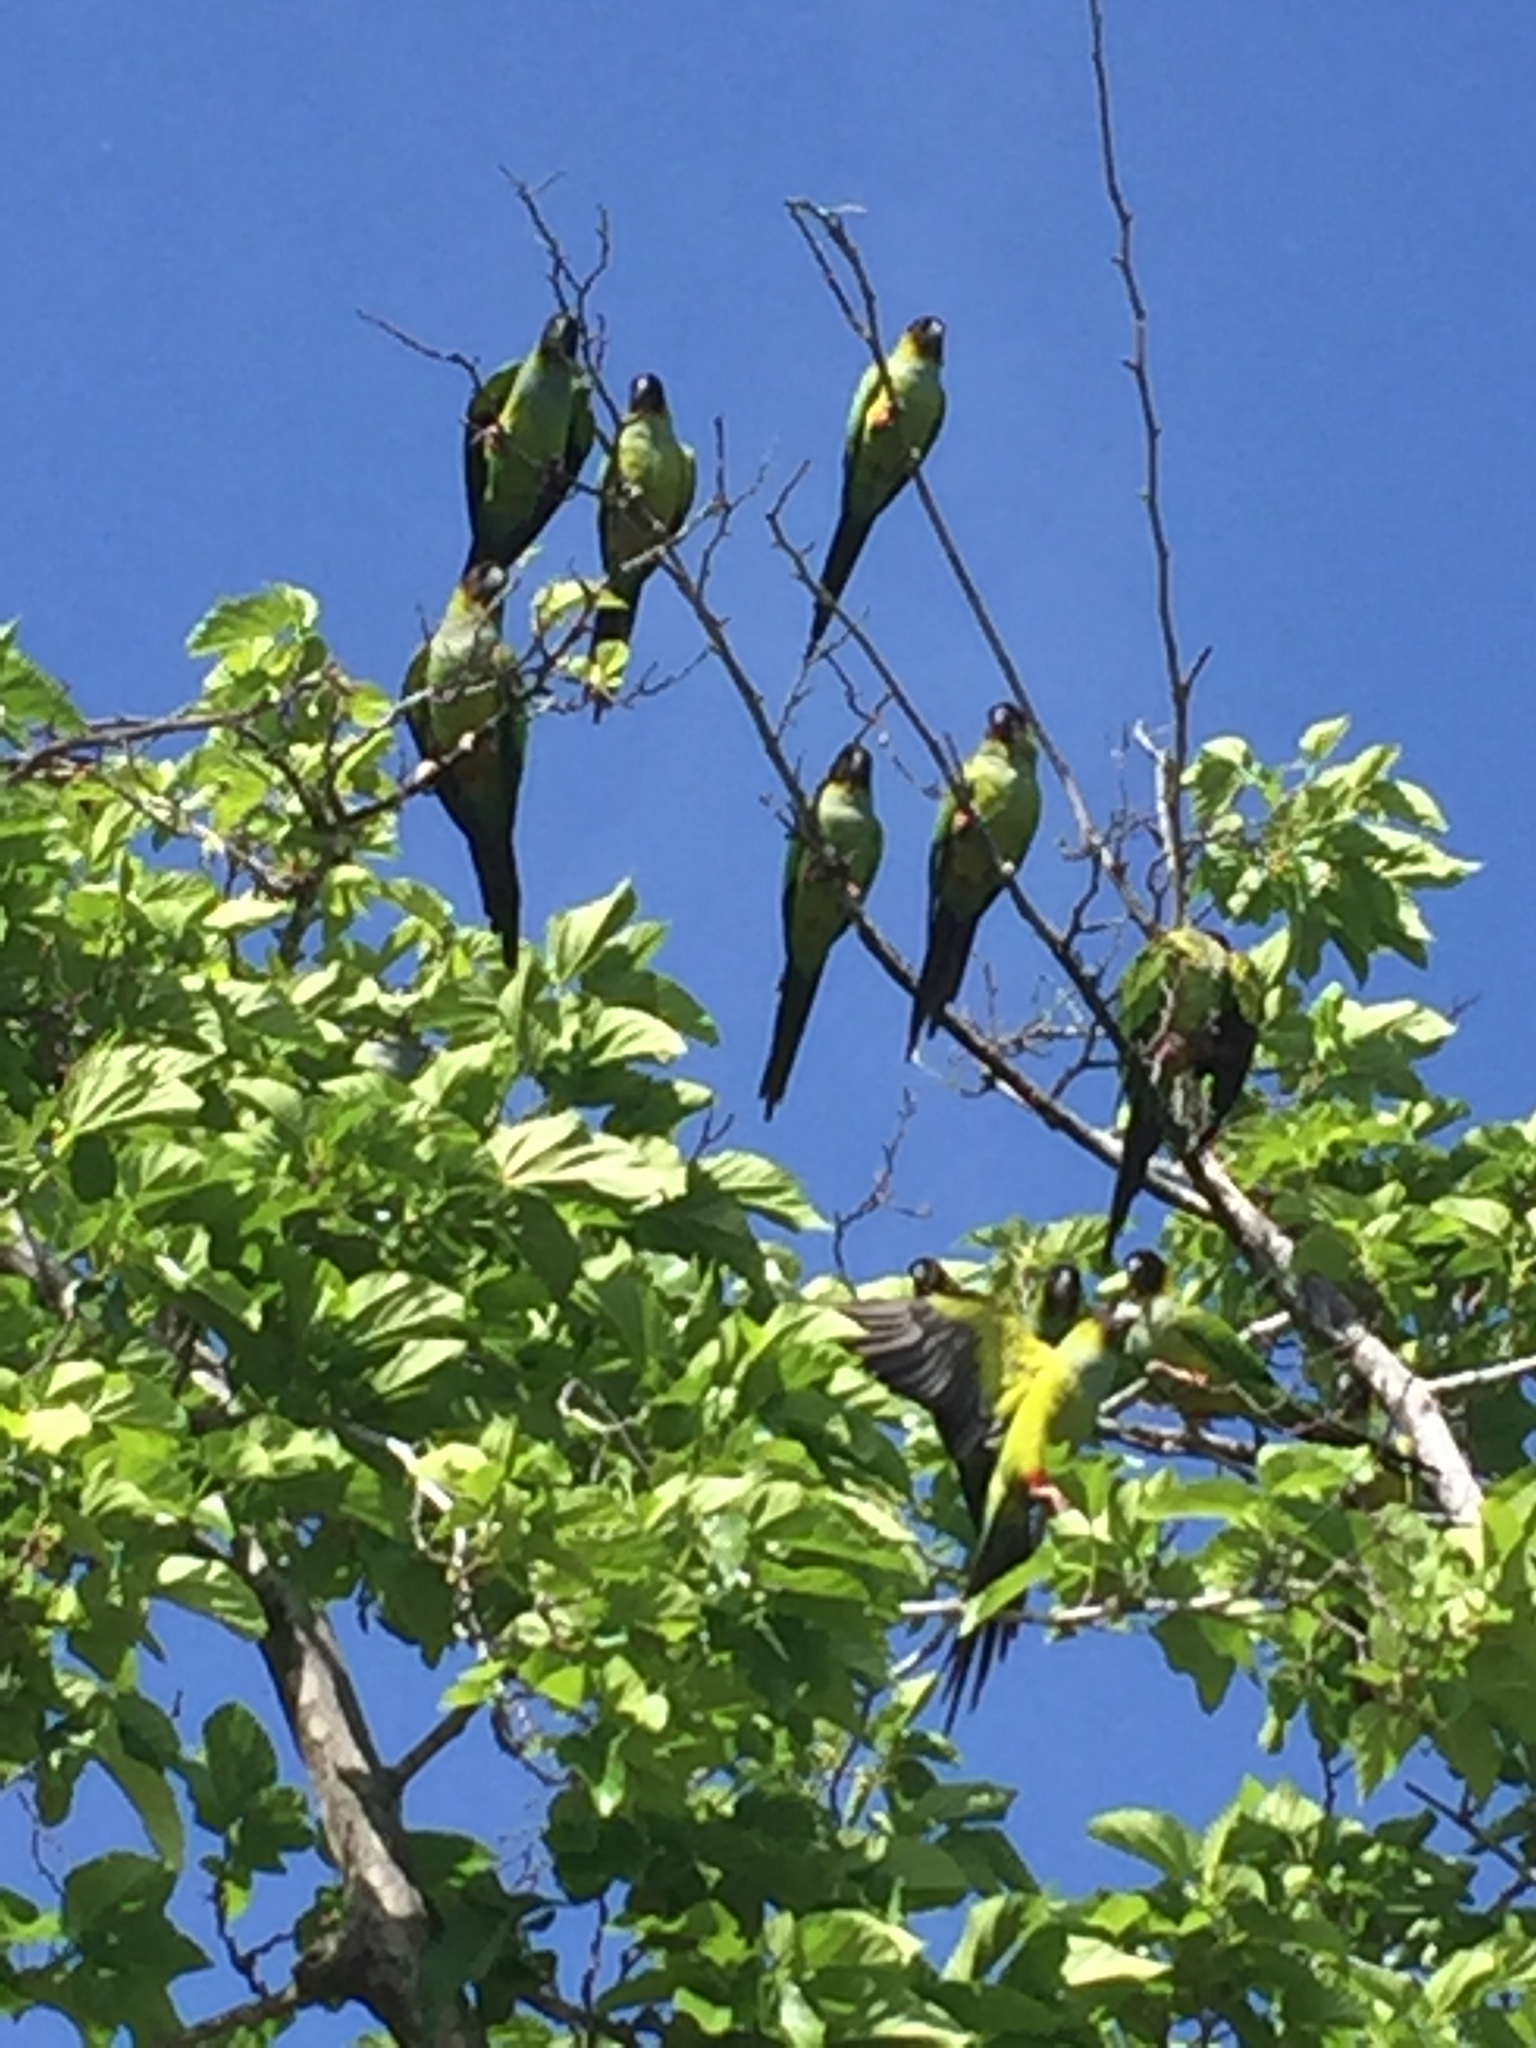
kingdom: Animalia
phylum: Chordata
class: Aves
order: Psittaciformes
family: Psittacidae
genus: Nandayus
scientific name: Nandayus nenday
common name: Nanday parakeet
